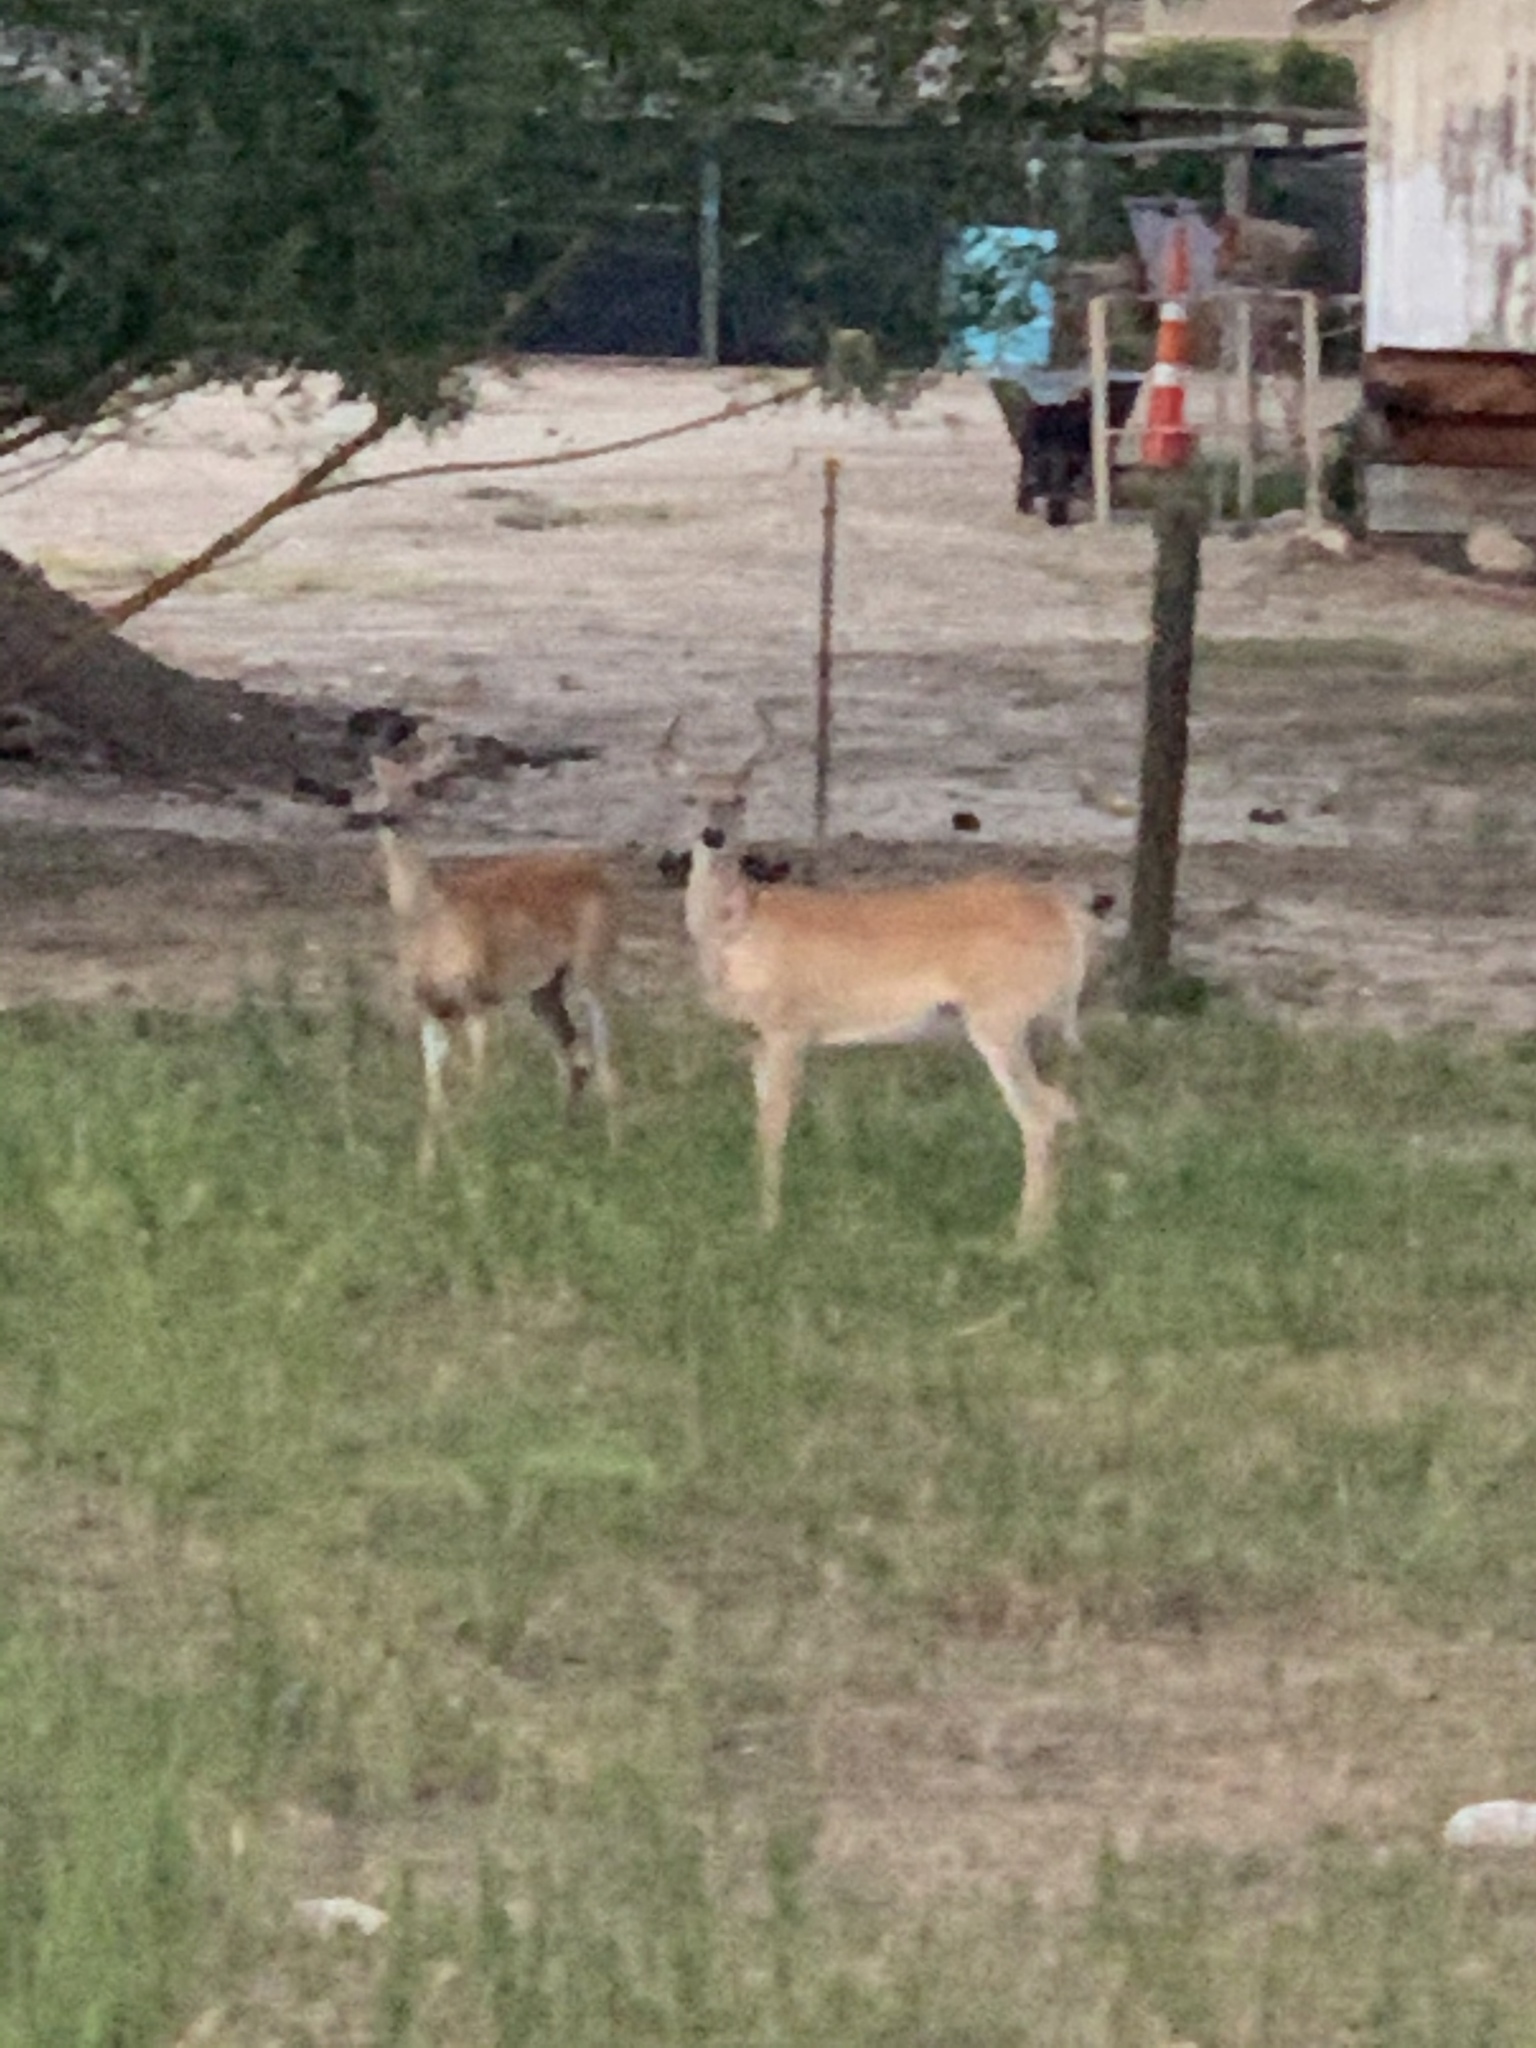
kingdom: Animalia
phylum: Chordata
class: Mammalia
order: Artiodactyla
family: Cervidae
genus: Odocoileus
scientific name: Odocoileus virginianus
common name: White-tailed deer
